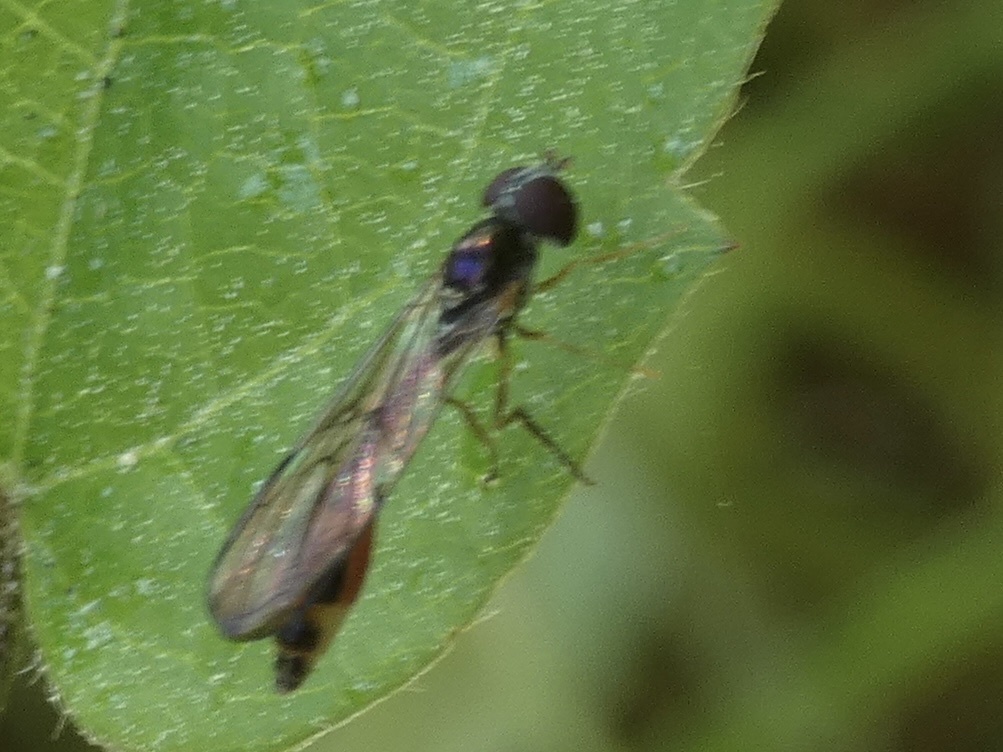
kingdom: Animalia
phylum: Arthropoda
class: Insecta
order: Diptera
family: Syrphidae
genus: Baccha
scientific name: Baccha elongata
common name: Common dainty
